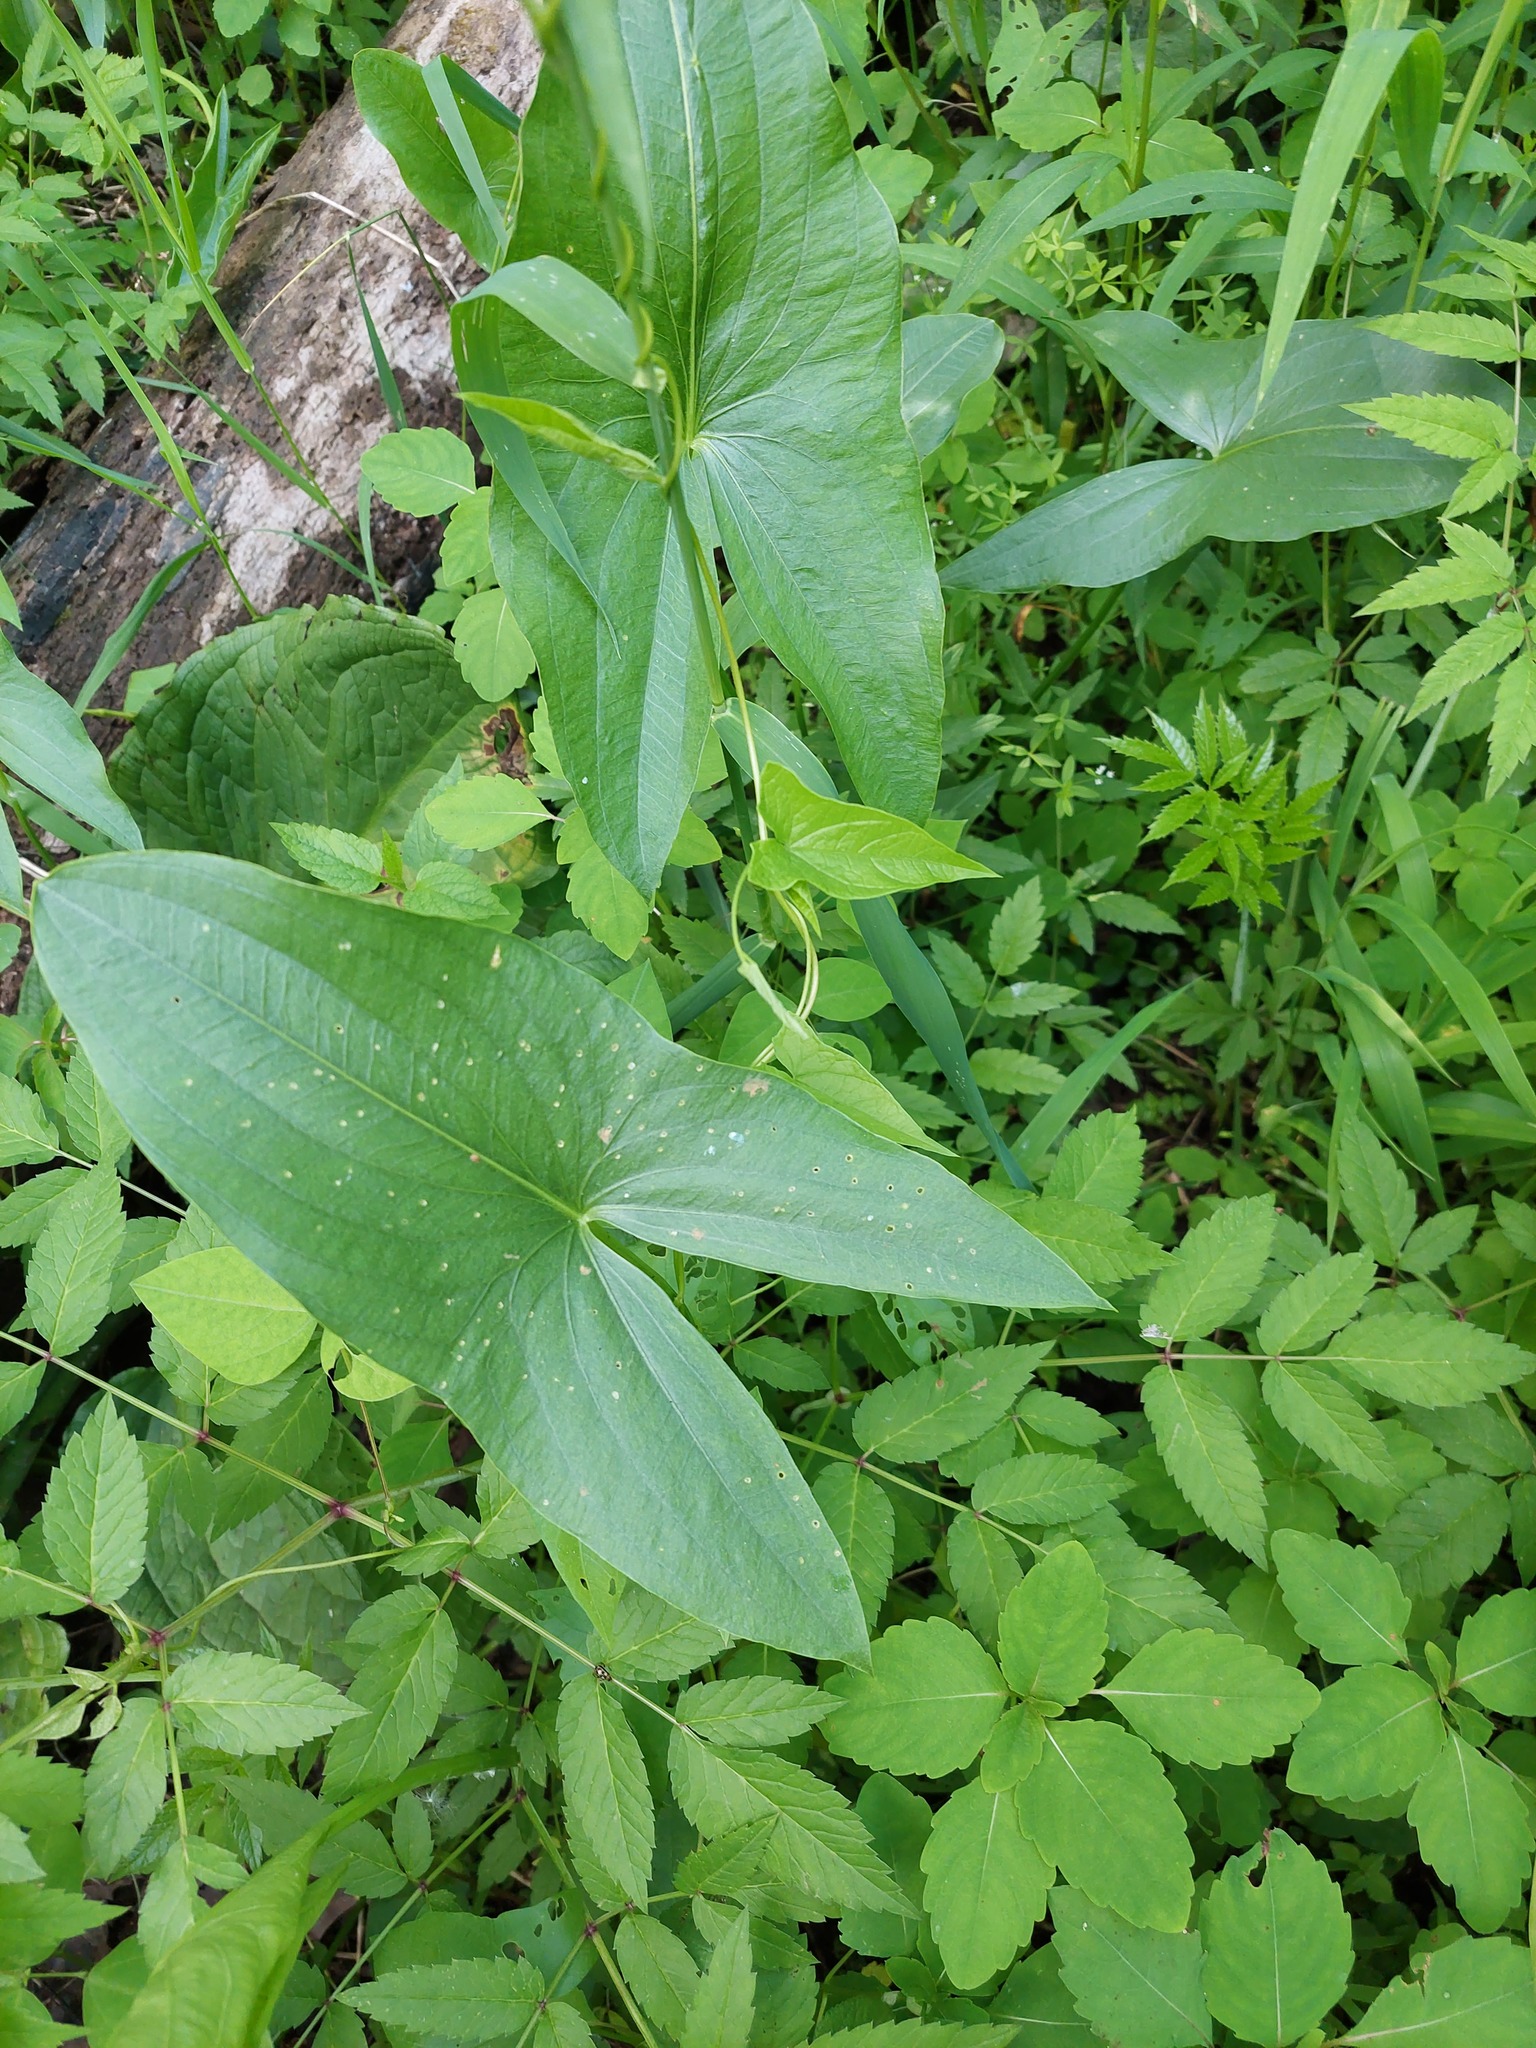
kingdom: Plantae
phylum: Tracheophyta
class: Liliopsida
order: Alismatales
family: Alismataceae
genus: Sagittaria
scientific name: Sagittaria latifolia
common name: Duck-potato
